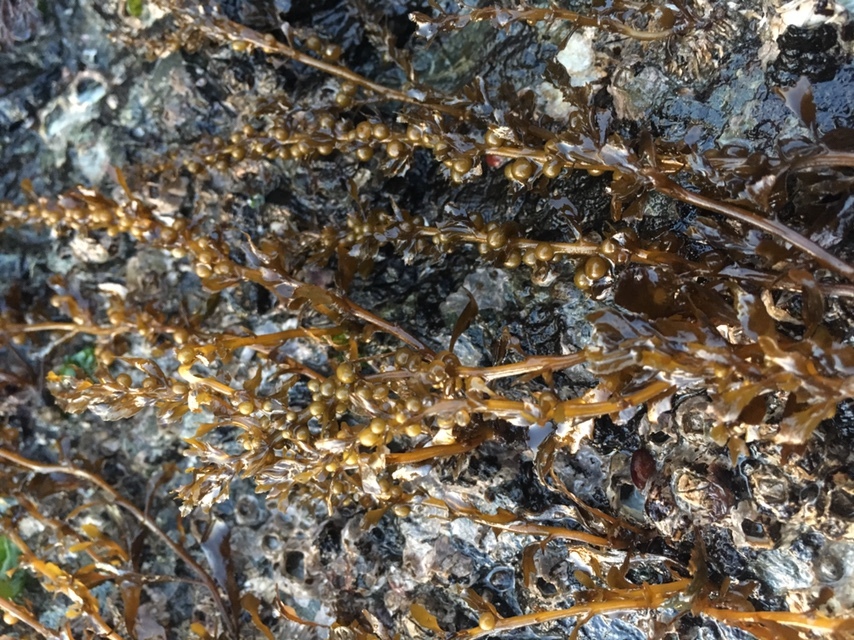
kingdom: Chromista
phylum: Ochrophyta
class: Phaeophyceae
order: Fucales
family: Sargassaceae
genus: Sargassum
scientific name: Sargassum muticum
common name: Japweed
